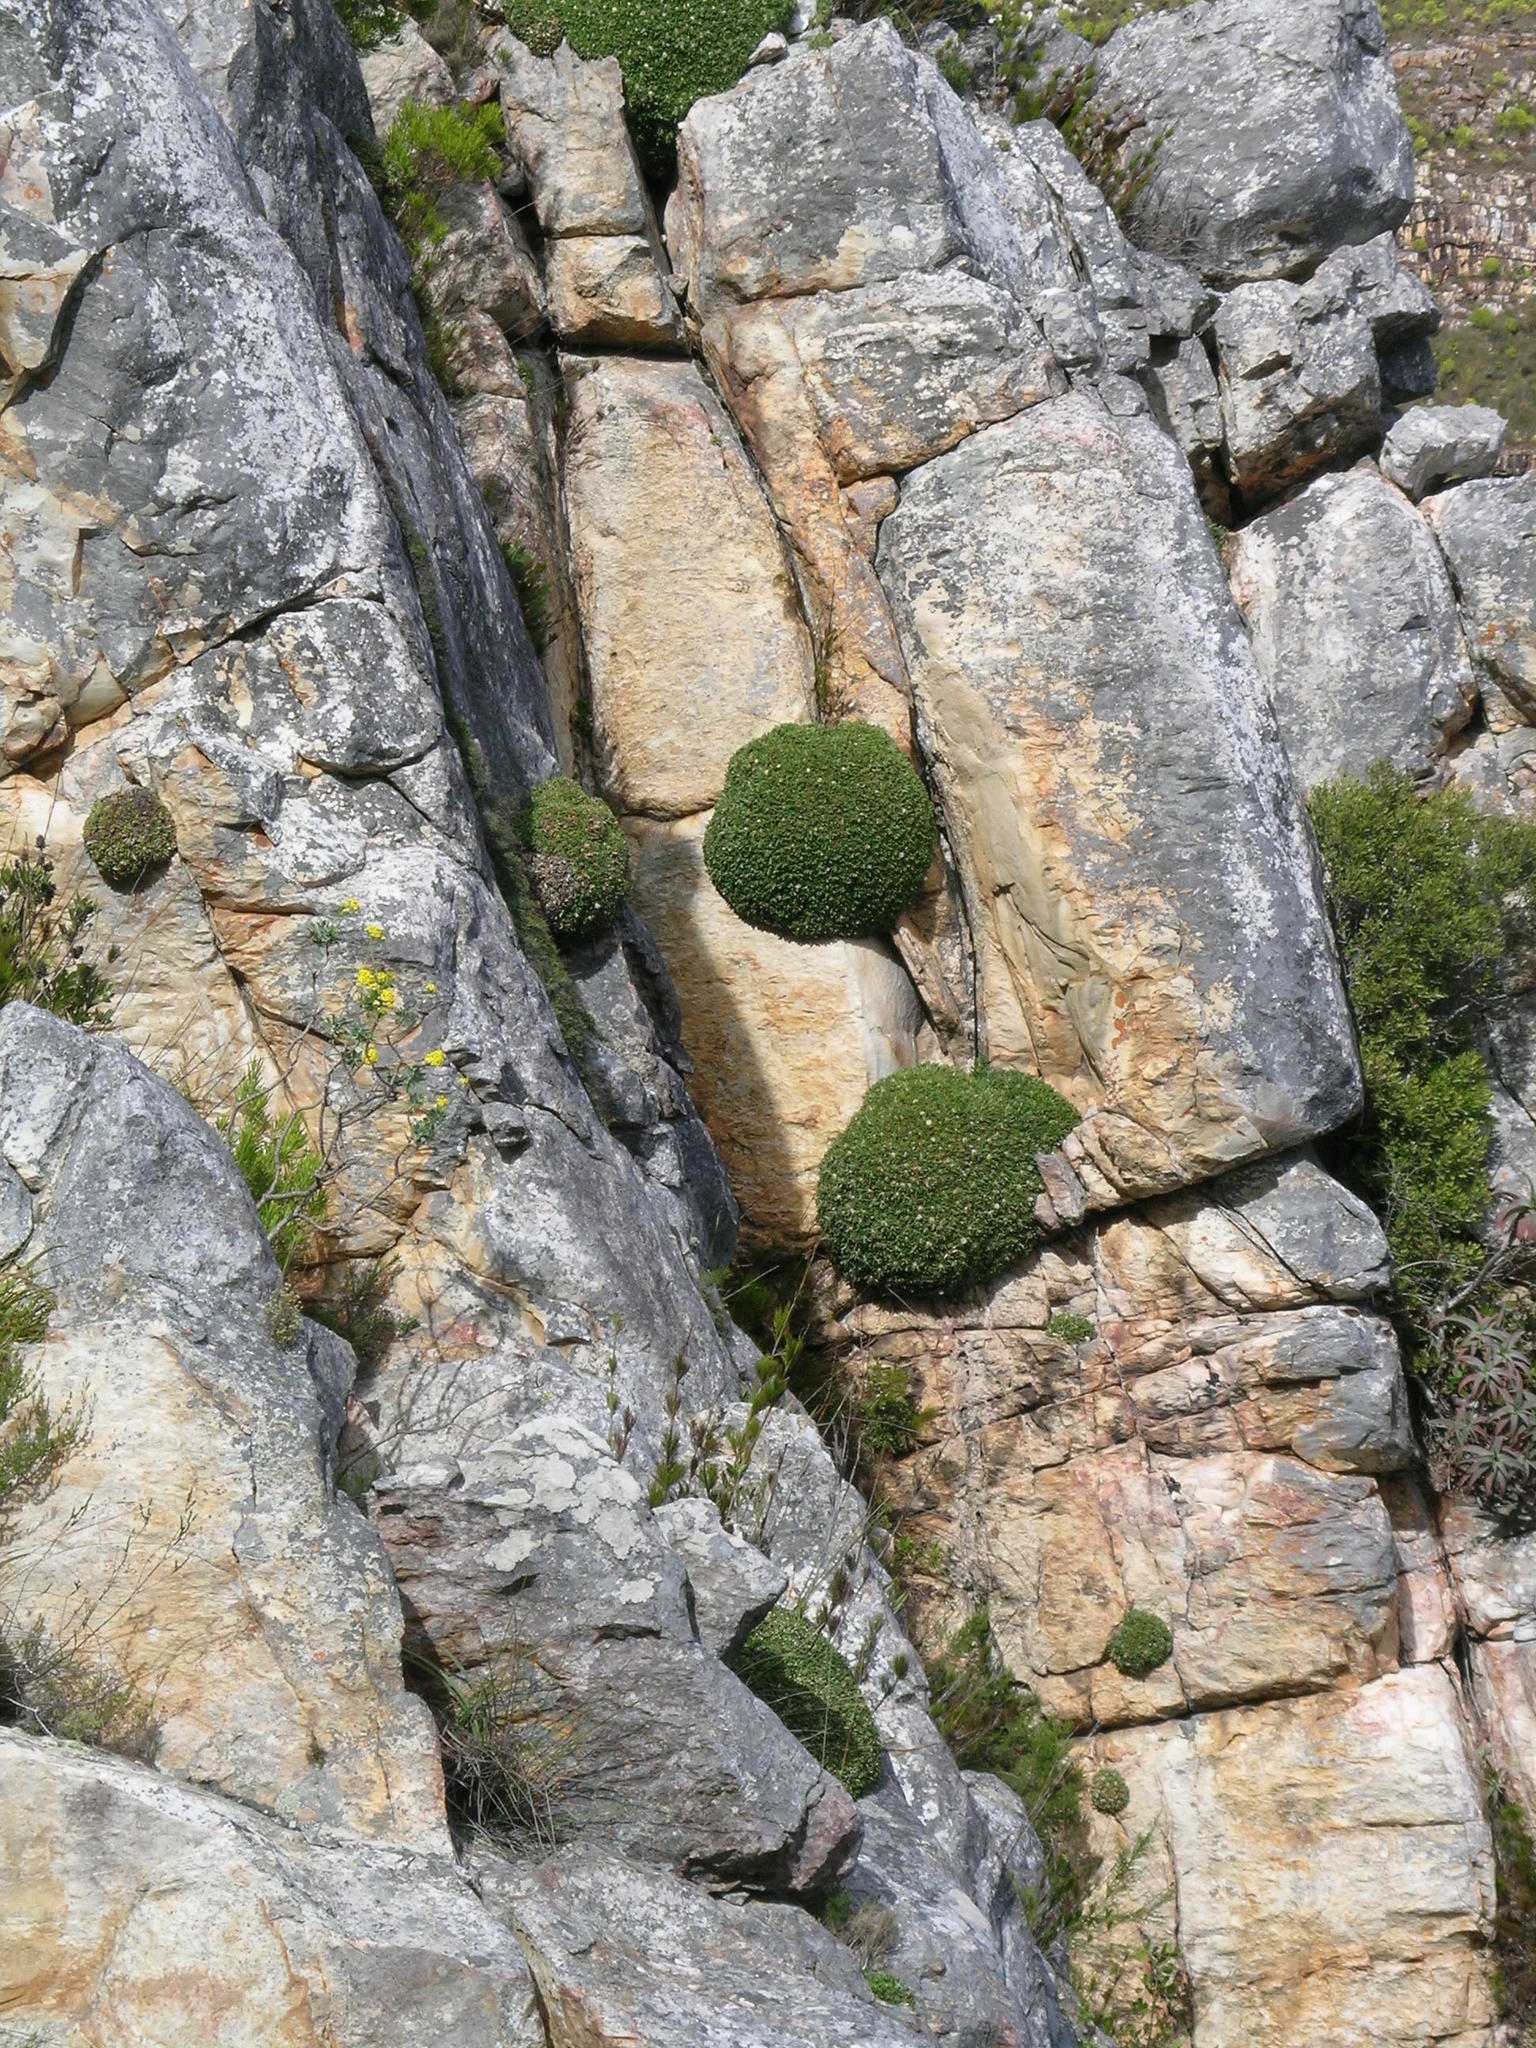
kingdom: Plantae
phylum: Tracheophyta
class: Magnoliopsida
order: Asterales
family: Asteraceae
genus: Oldenburgia
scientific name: Oldenburgia paradoxa
